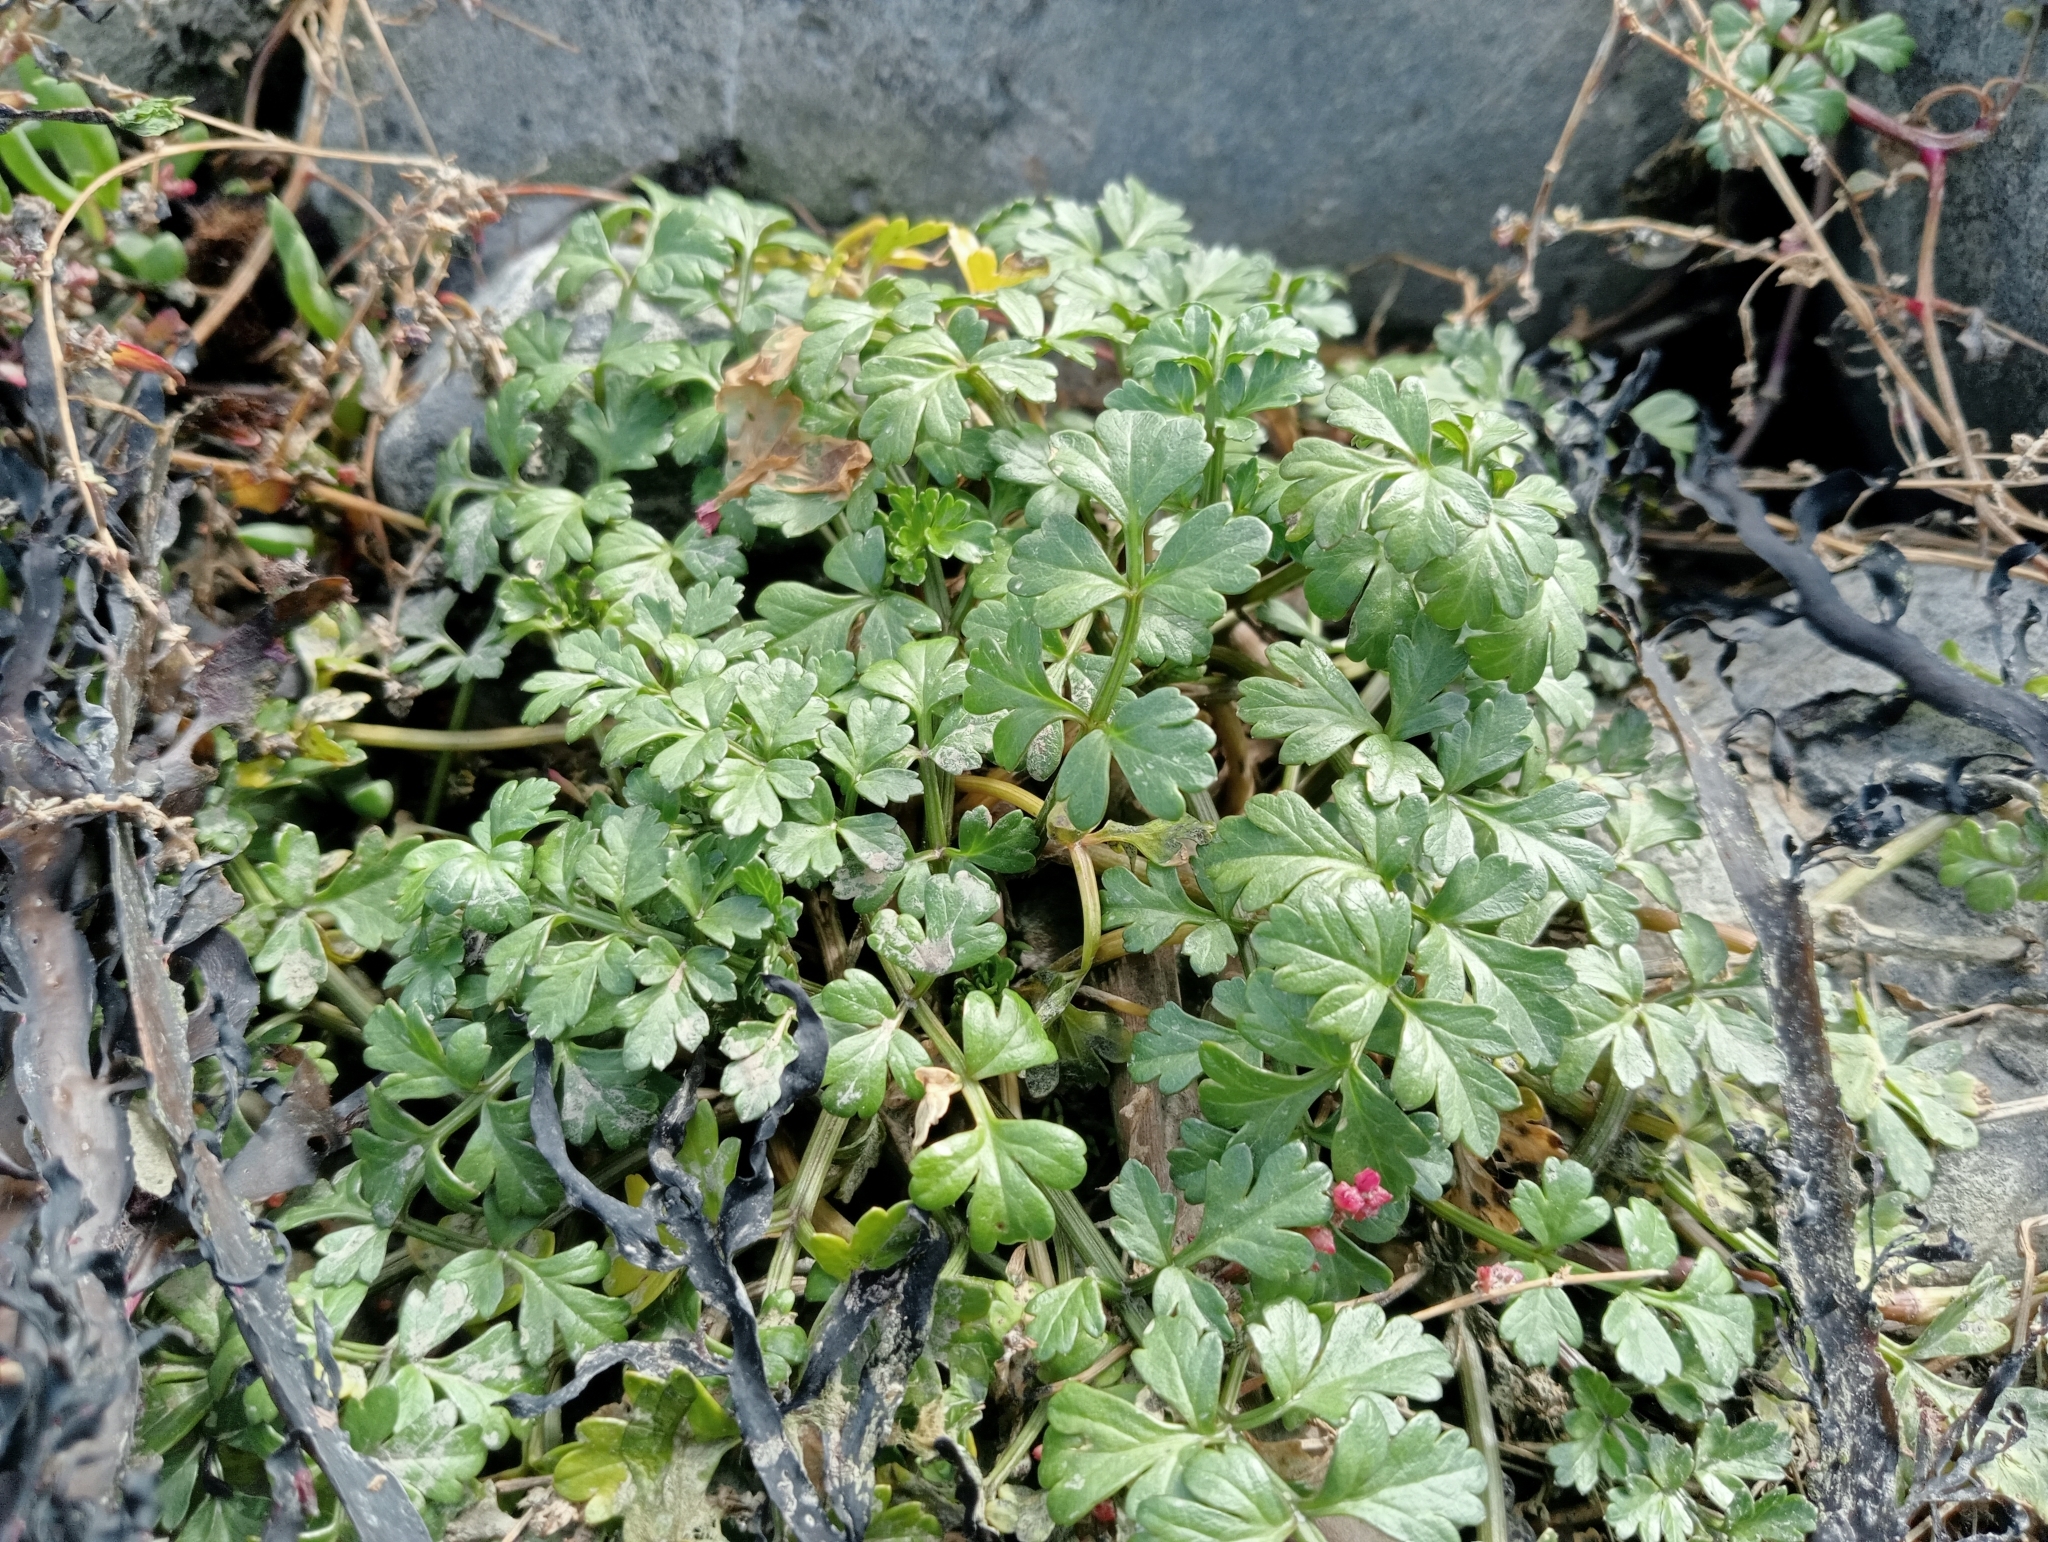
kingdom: Plantae
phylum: Tracheophyta
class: Magnoliopsida
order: Apiales
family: Apiaceae
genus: Apium
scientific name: Apium prostratum
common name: Prostrate marshwort
